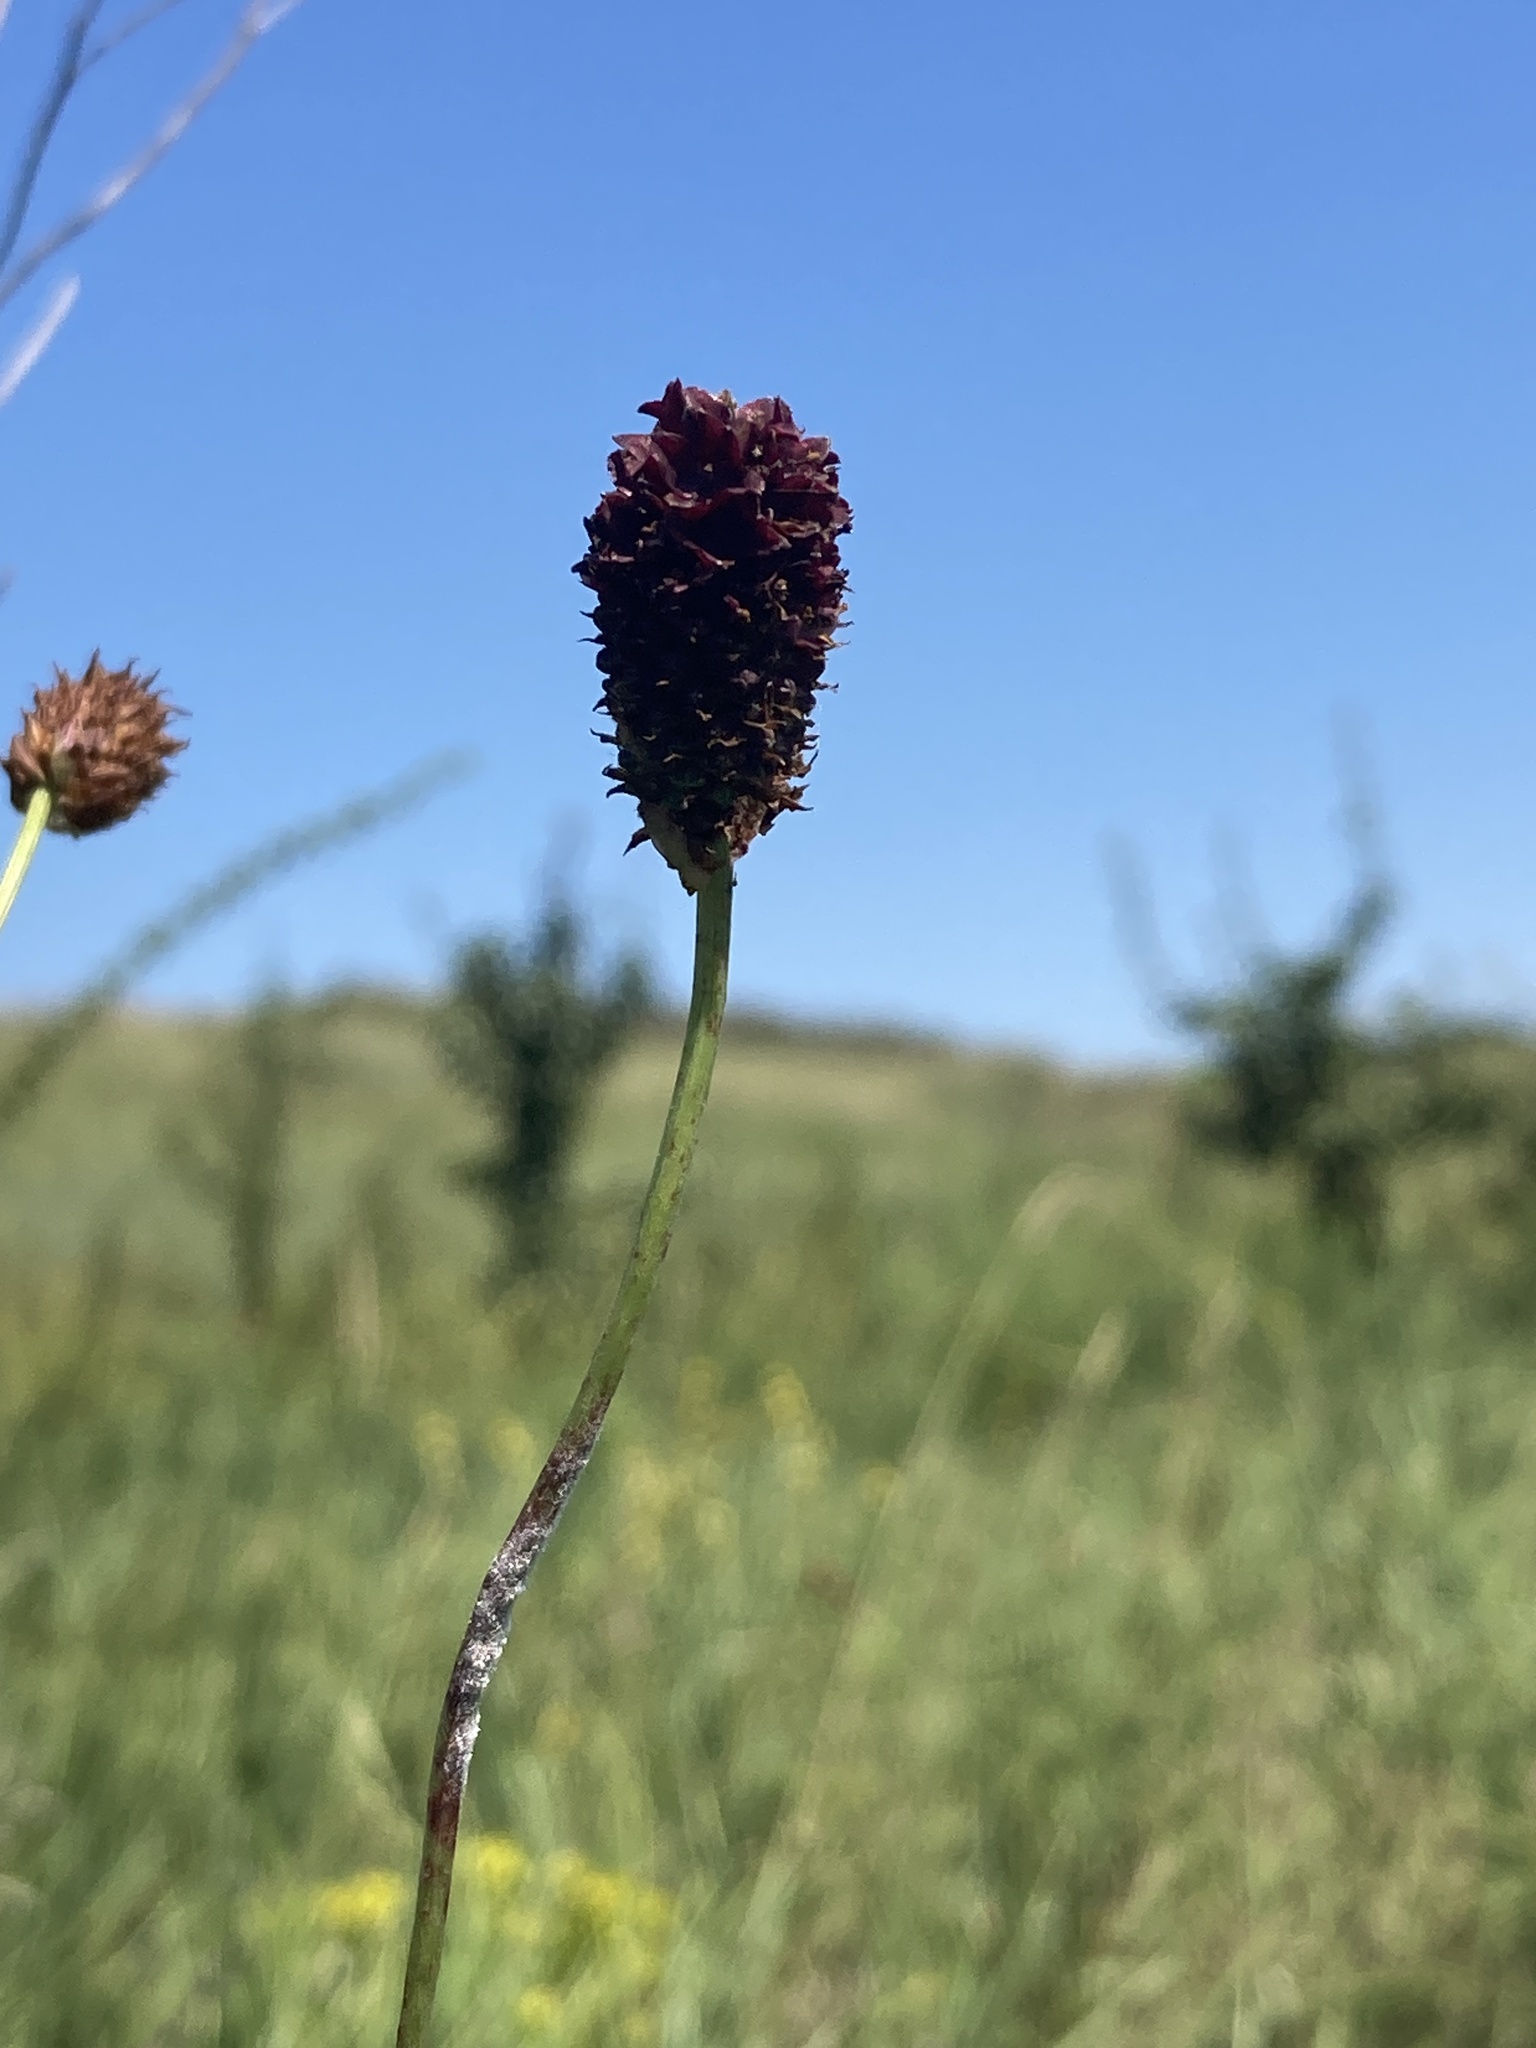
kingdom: Plantae
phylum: Tracheophyta
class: Magnoliopsida
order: Rosales
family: Rosaceae
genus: Sanguisorba
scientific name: Sanguisorba officinalis
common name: Great burnet
